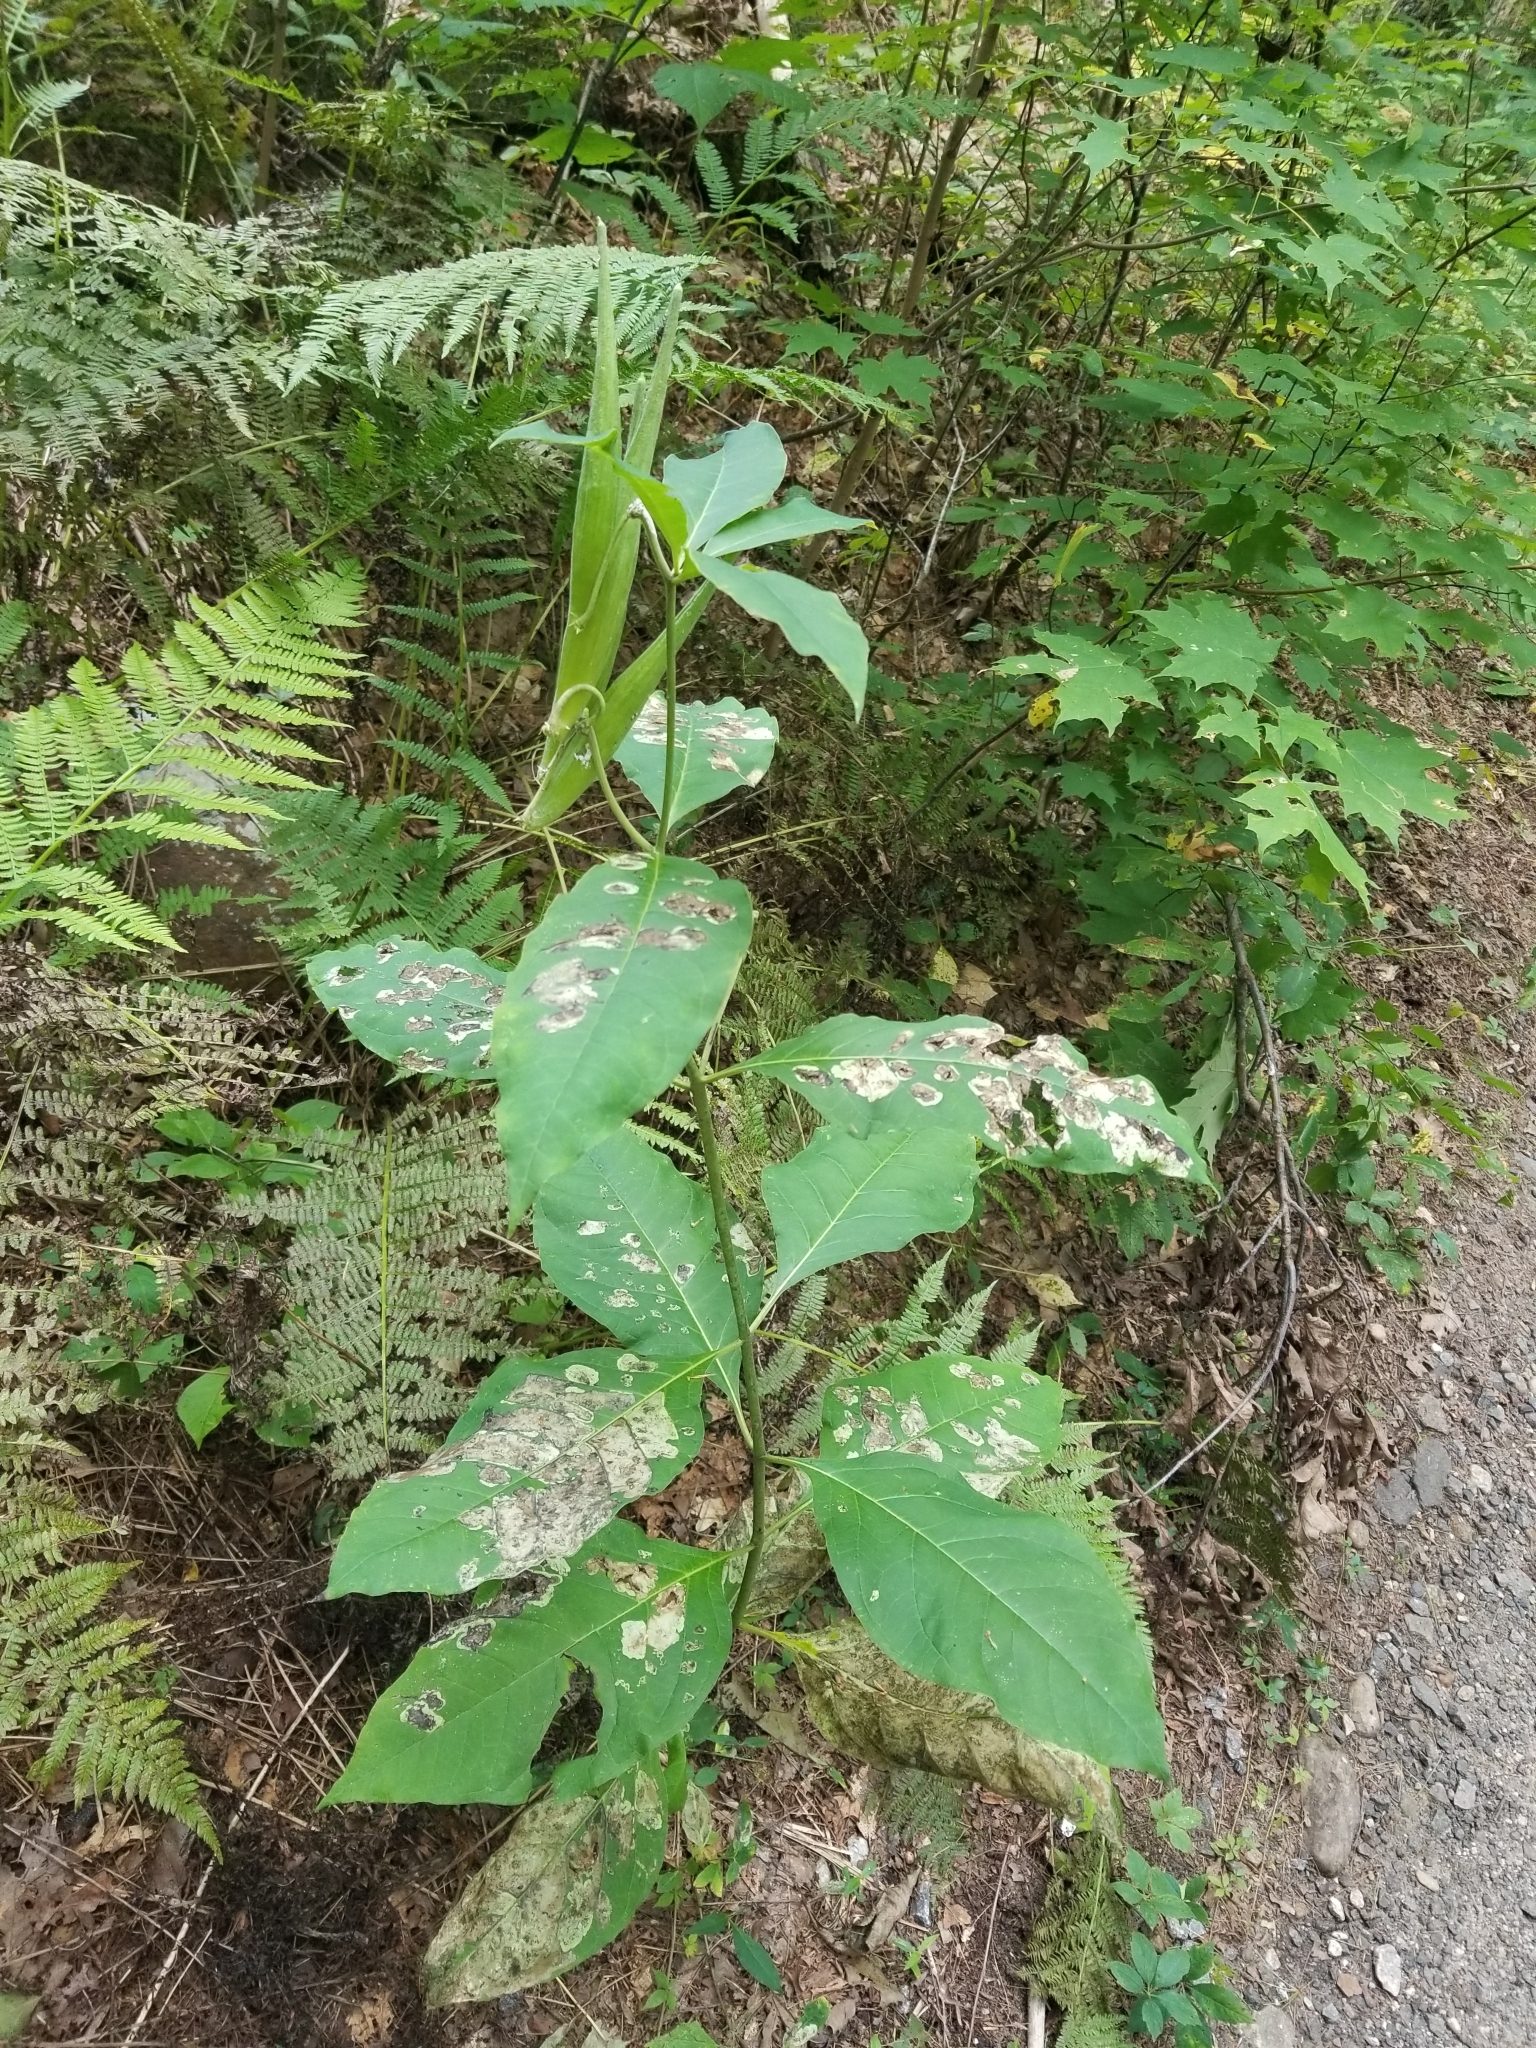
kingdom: Plantae
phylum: Tracheophyta
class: Magnoliopsida
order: Gentianales
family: Apocynaceae
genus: Asclepias
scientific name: Asclepias exaltata
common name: Poke milkweed
